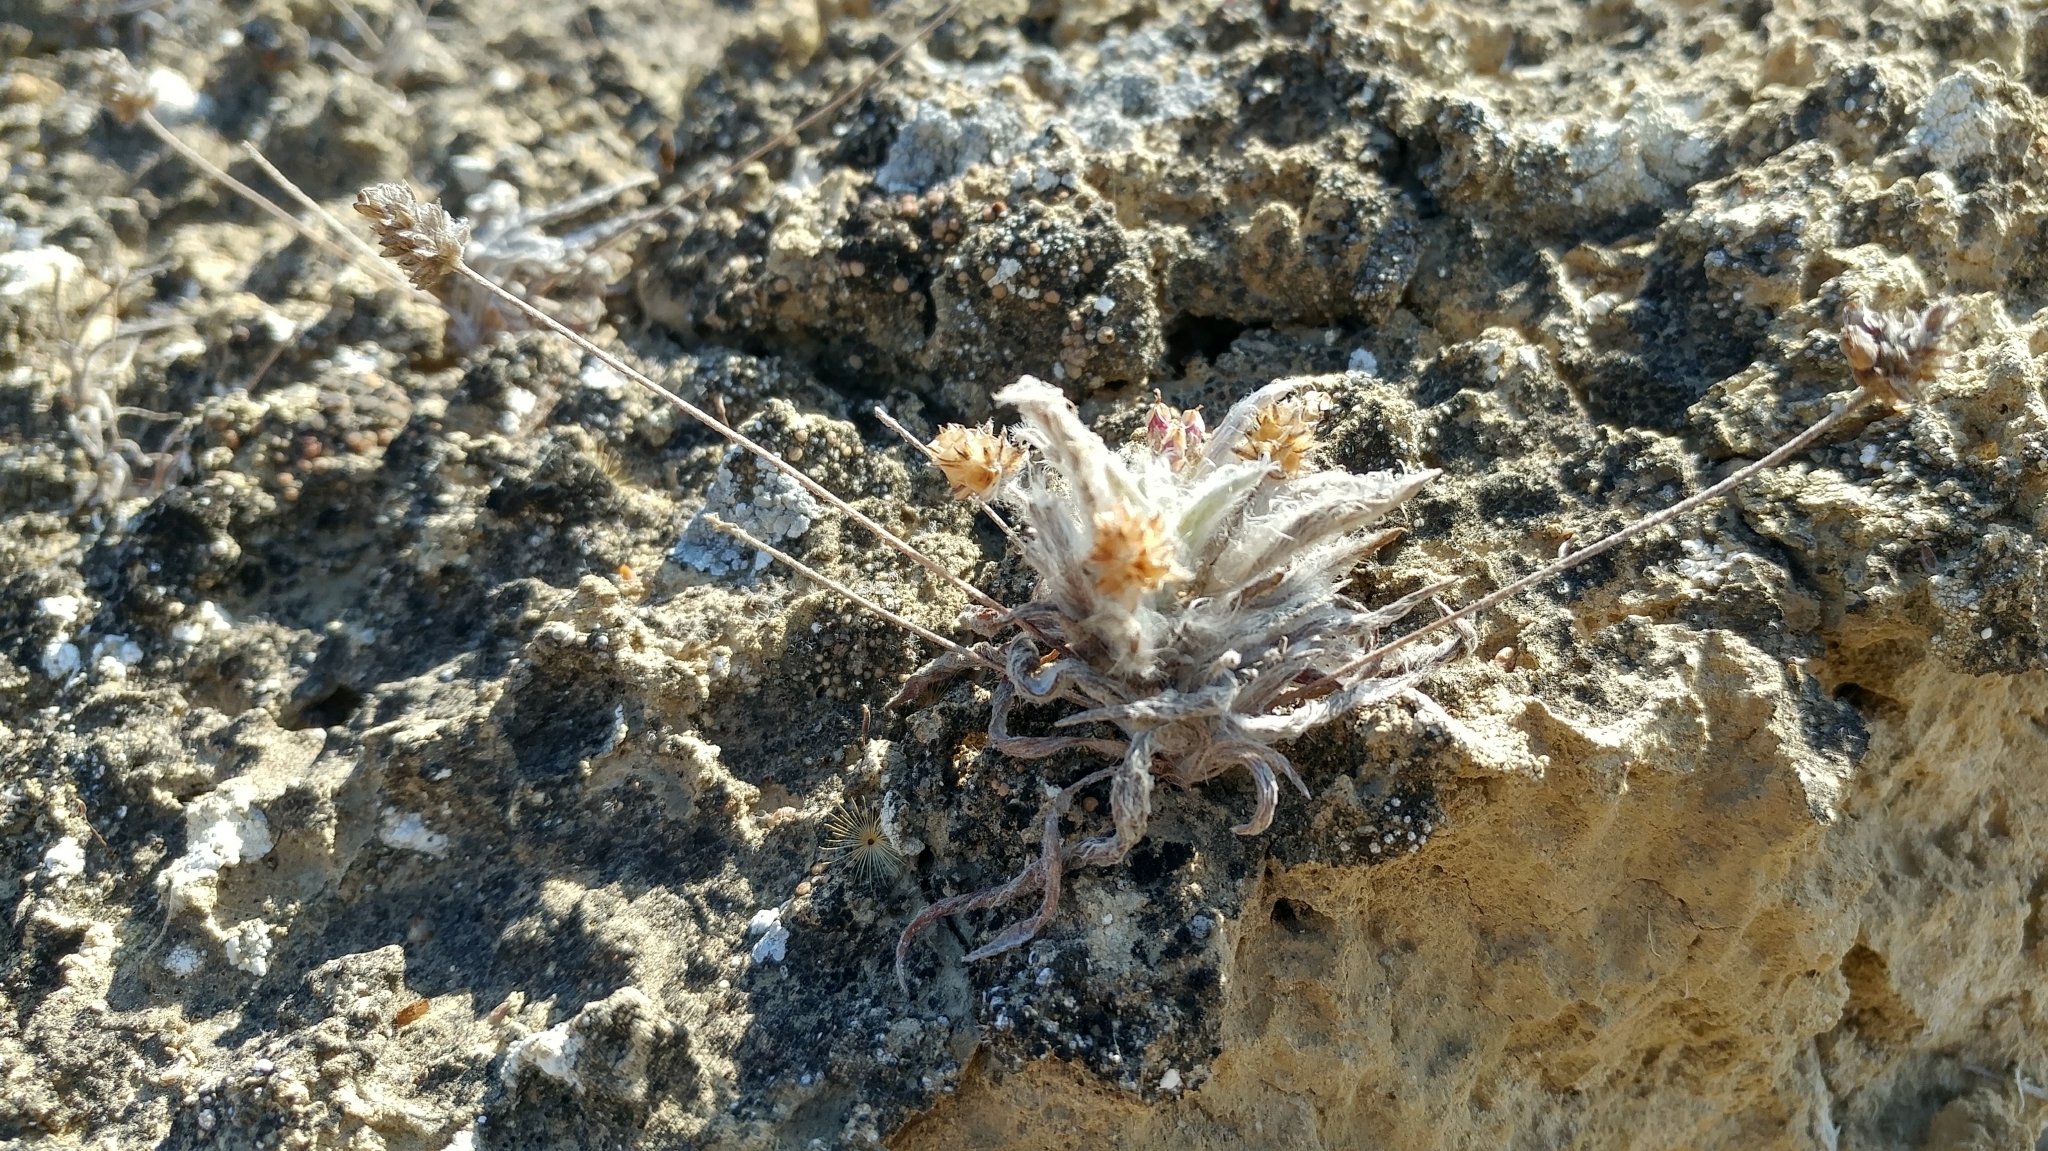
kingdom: Plantae
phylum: Tracheophyta
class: Magnoliopsida
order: Lamiales
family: Plantaginaceae
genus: Plantago
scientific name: Plantago ovata
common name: Blond plantain
